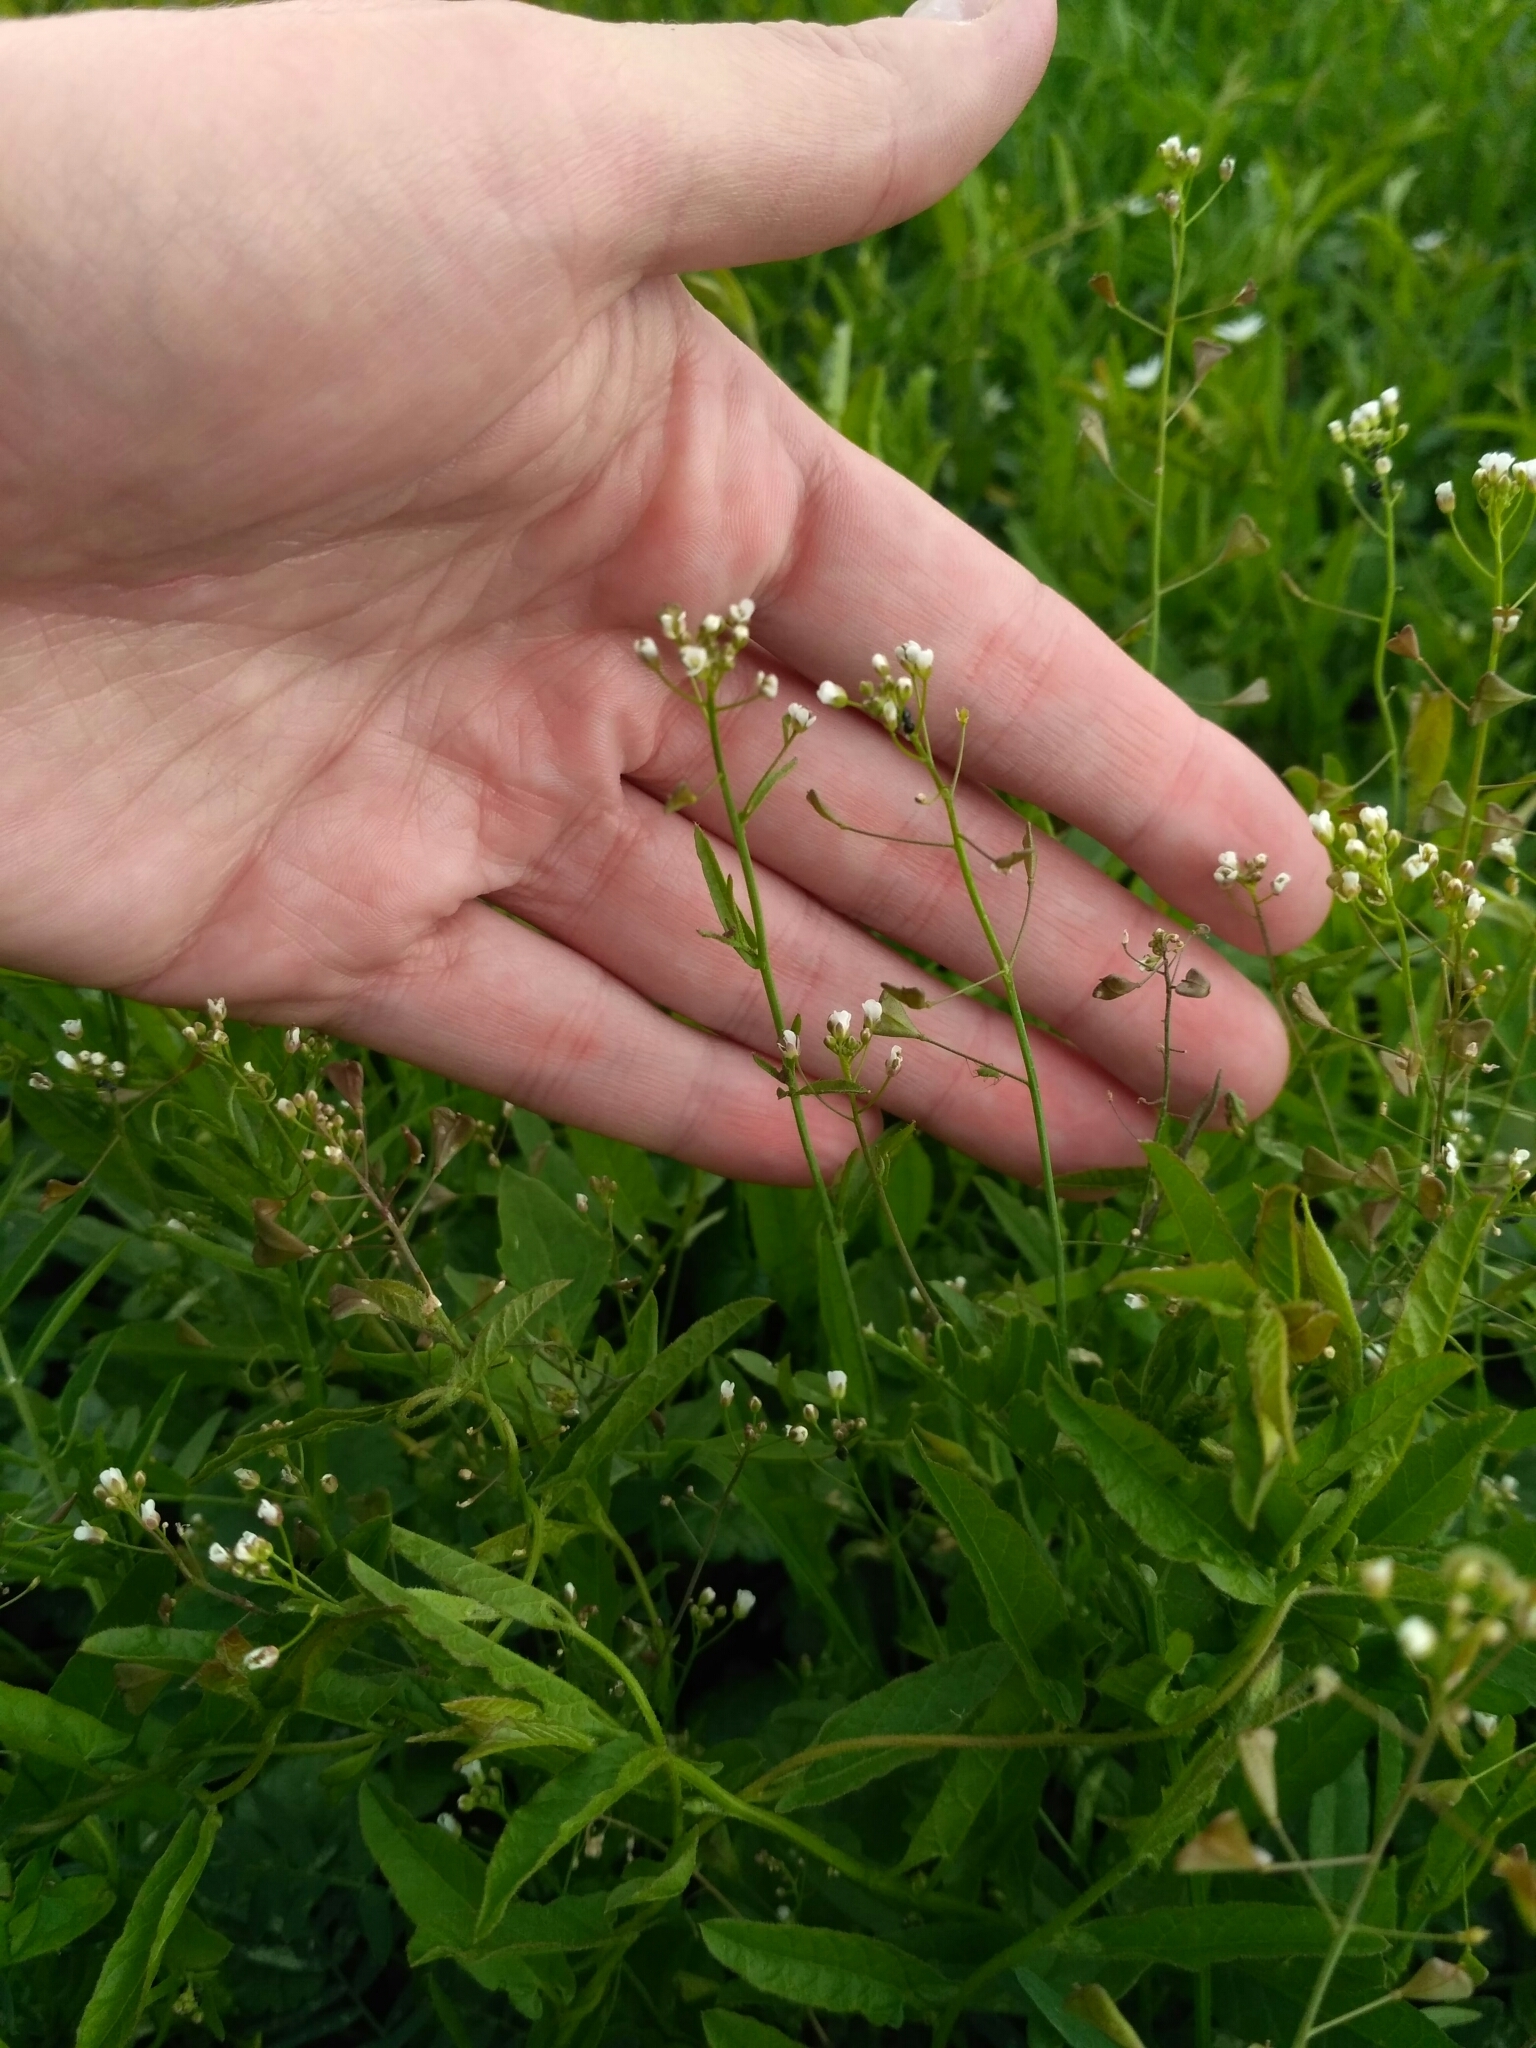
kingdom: Plantae
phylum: Tracheophyta
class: Magnoliopsida
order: Brassicales
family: Brassicaceae
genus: Capsella
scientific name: Capsella bursa-pastoris
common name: Shepherd's purse
